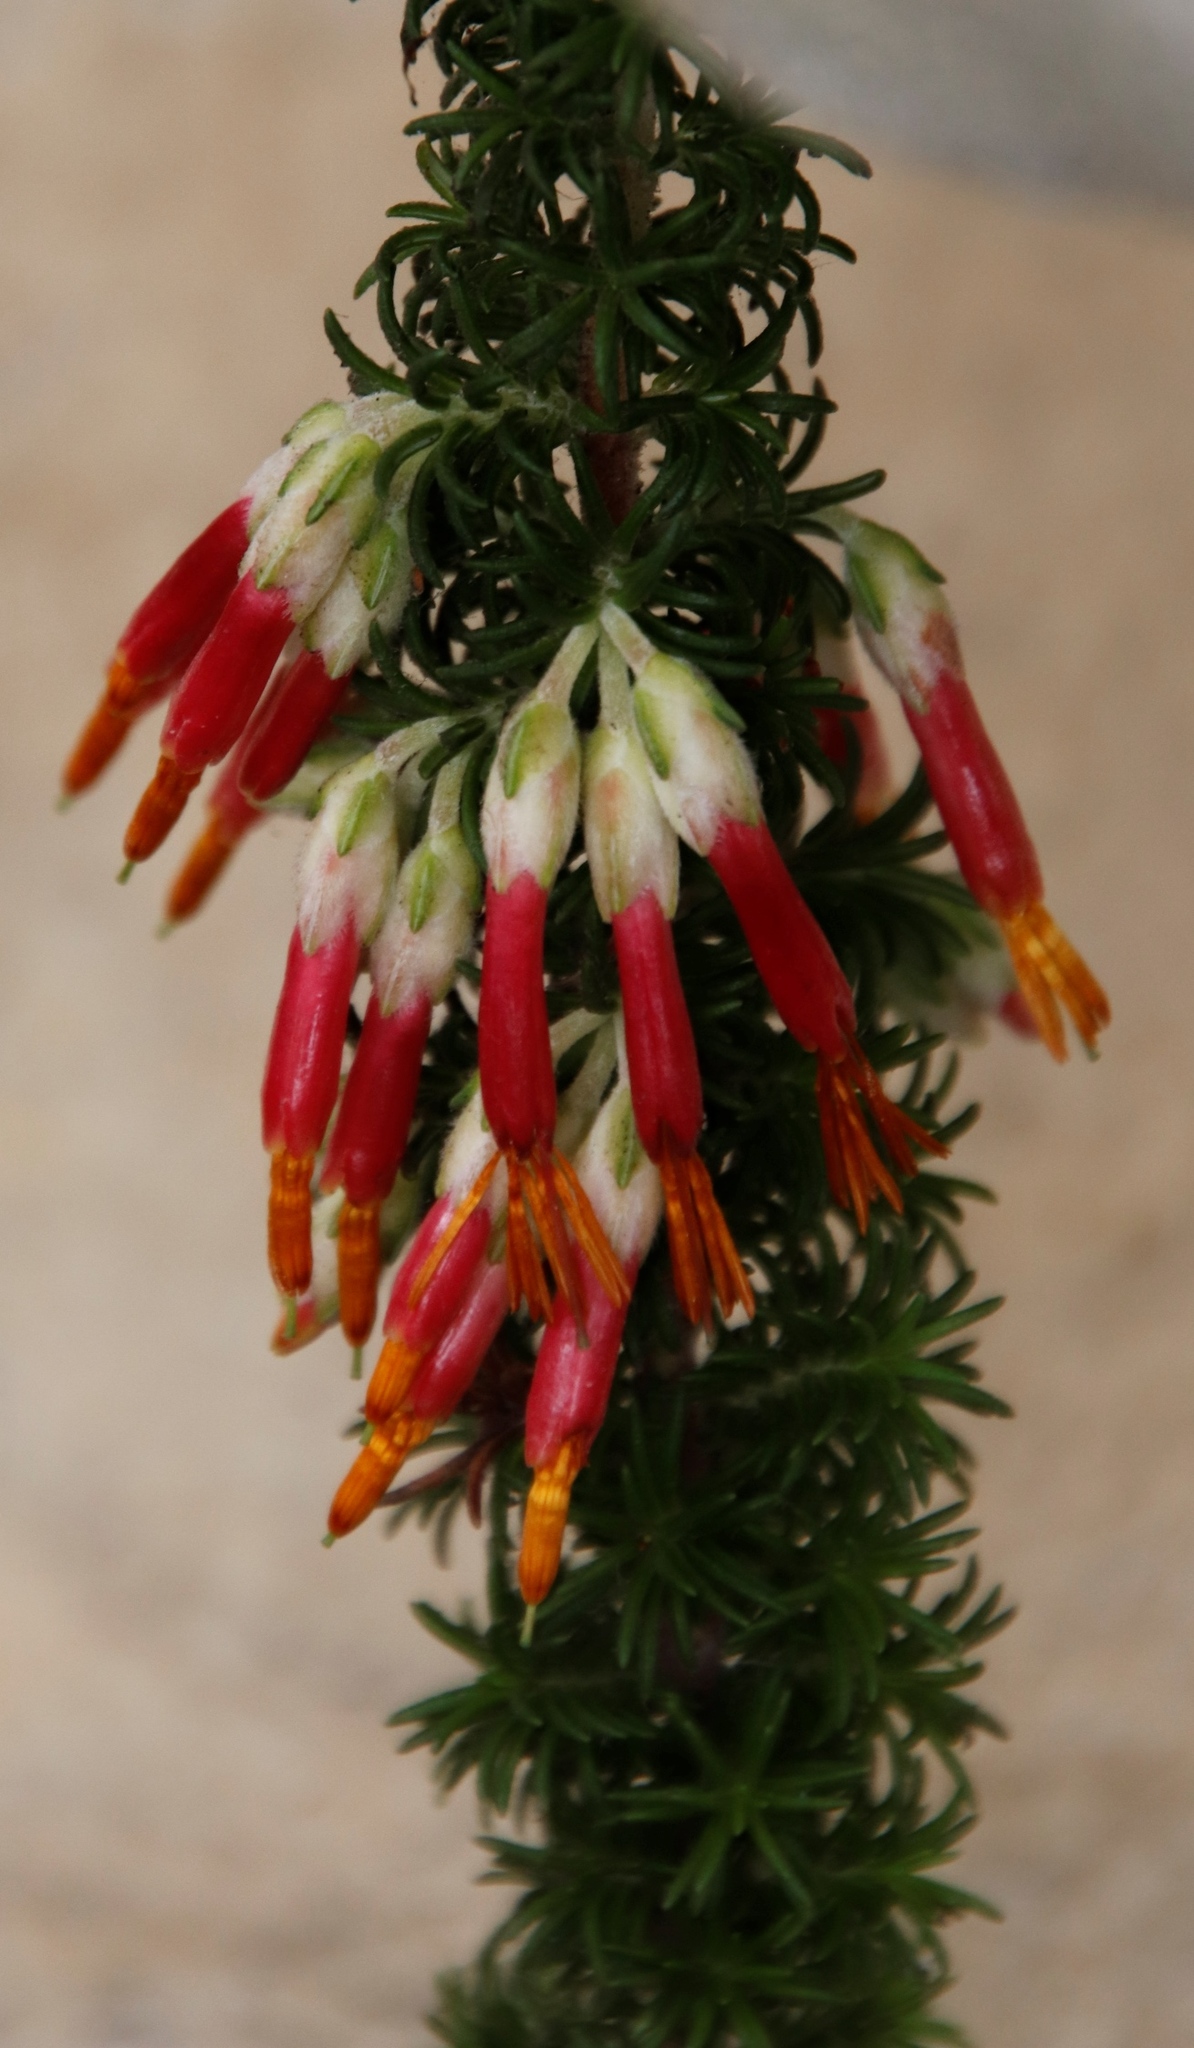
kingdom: Plantae
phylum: Tracheophyta
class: Magnoliopsida
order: Ericales
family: Ericaceae
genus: Erica
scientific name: Erica coccinea
